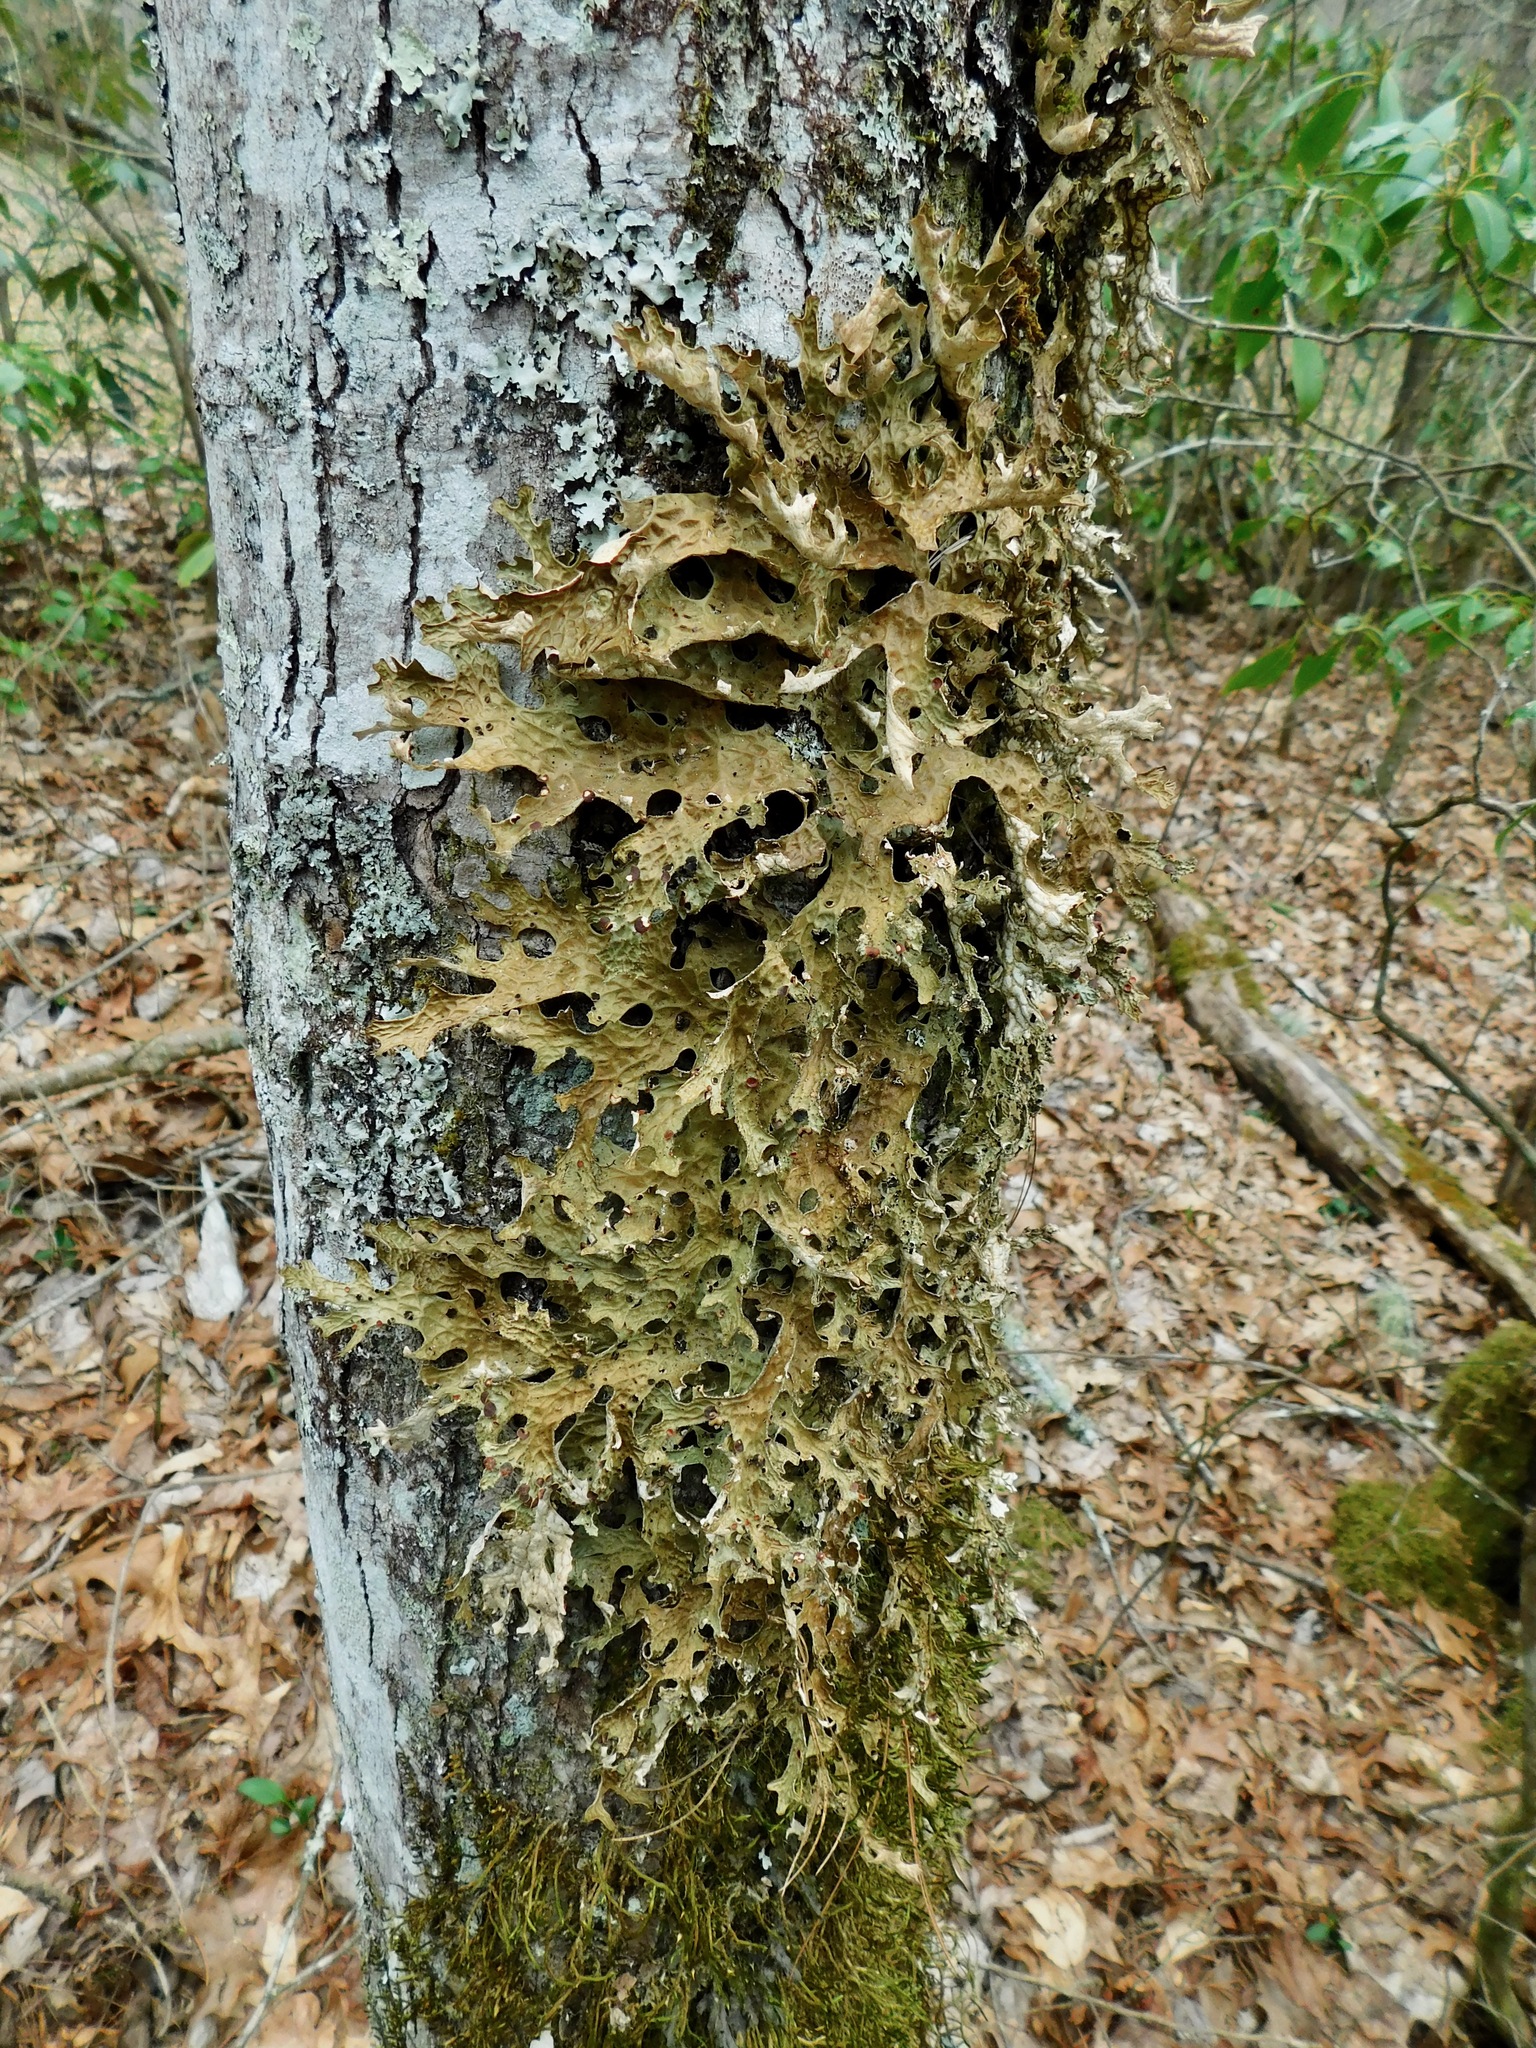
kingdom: Fungi
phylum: Ascomycota
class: Lecanoromycetes
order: Peltigerales
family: Lobariaceae
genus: Lobaria
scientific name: Lobaria pulmonaria
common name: Lungwort
